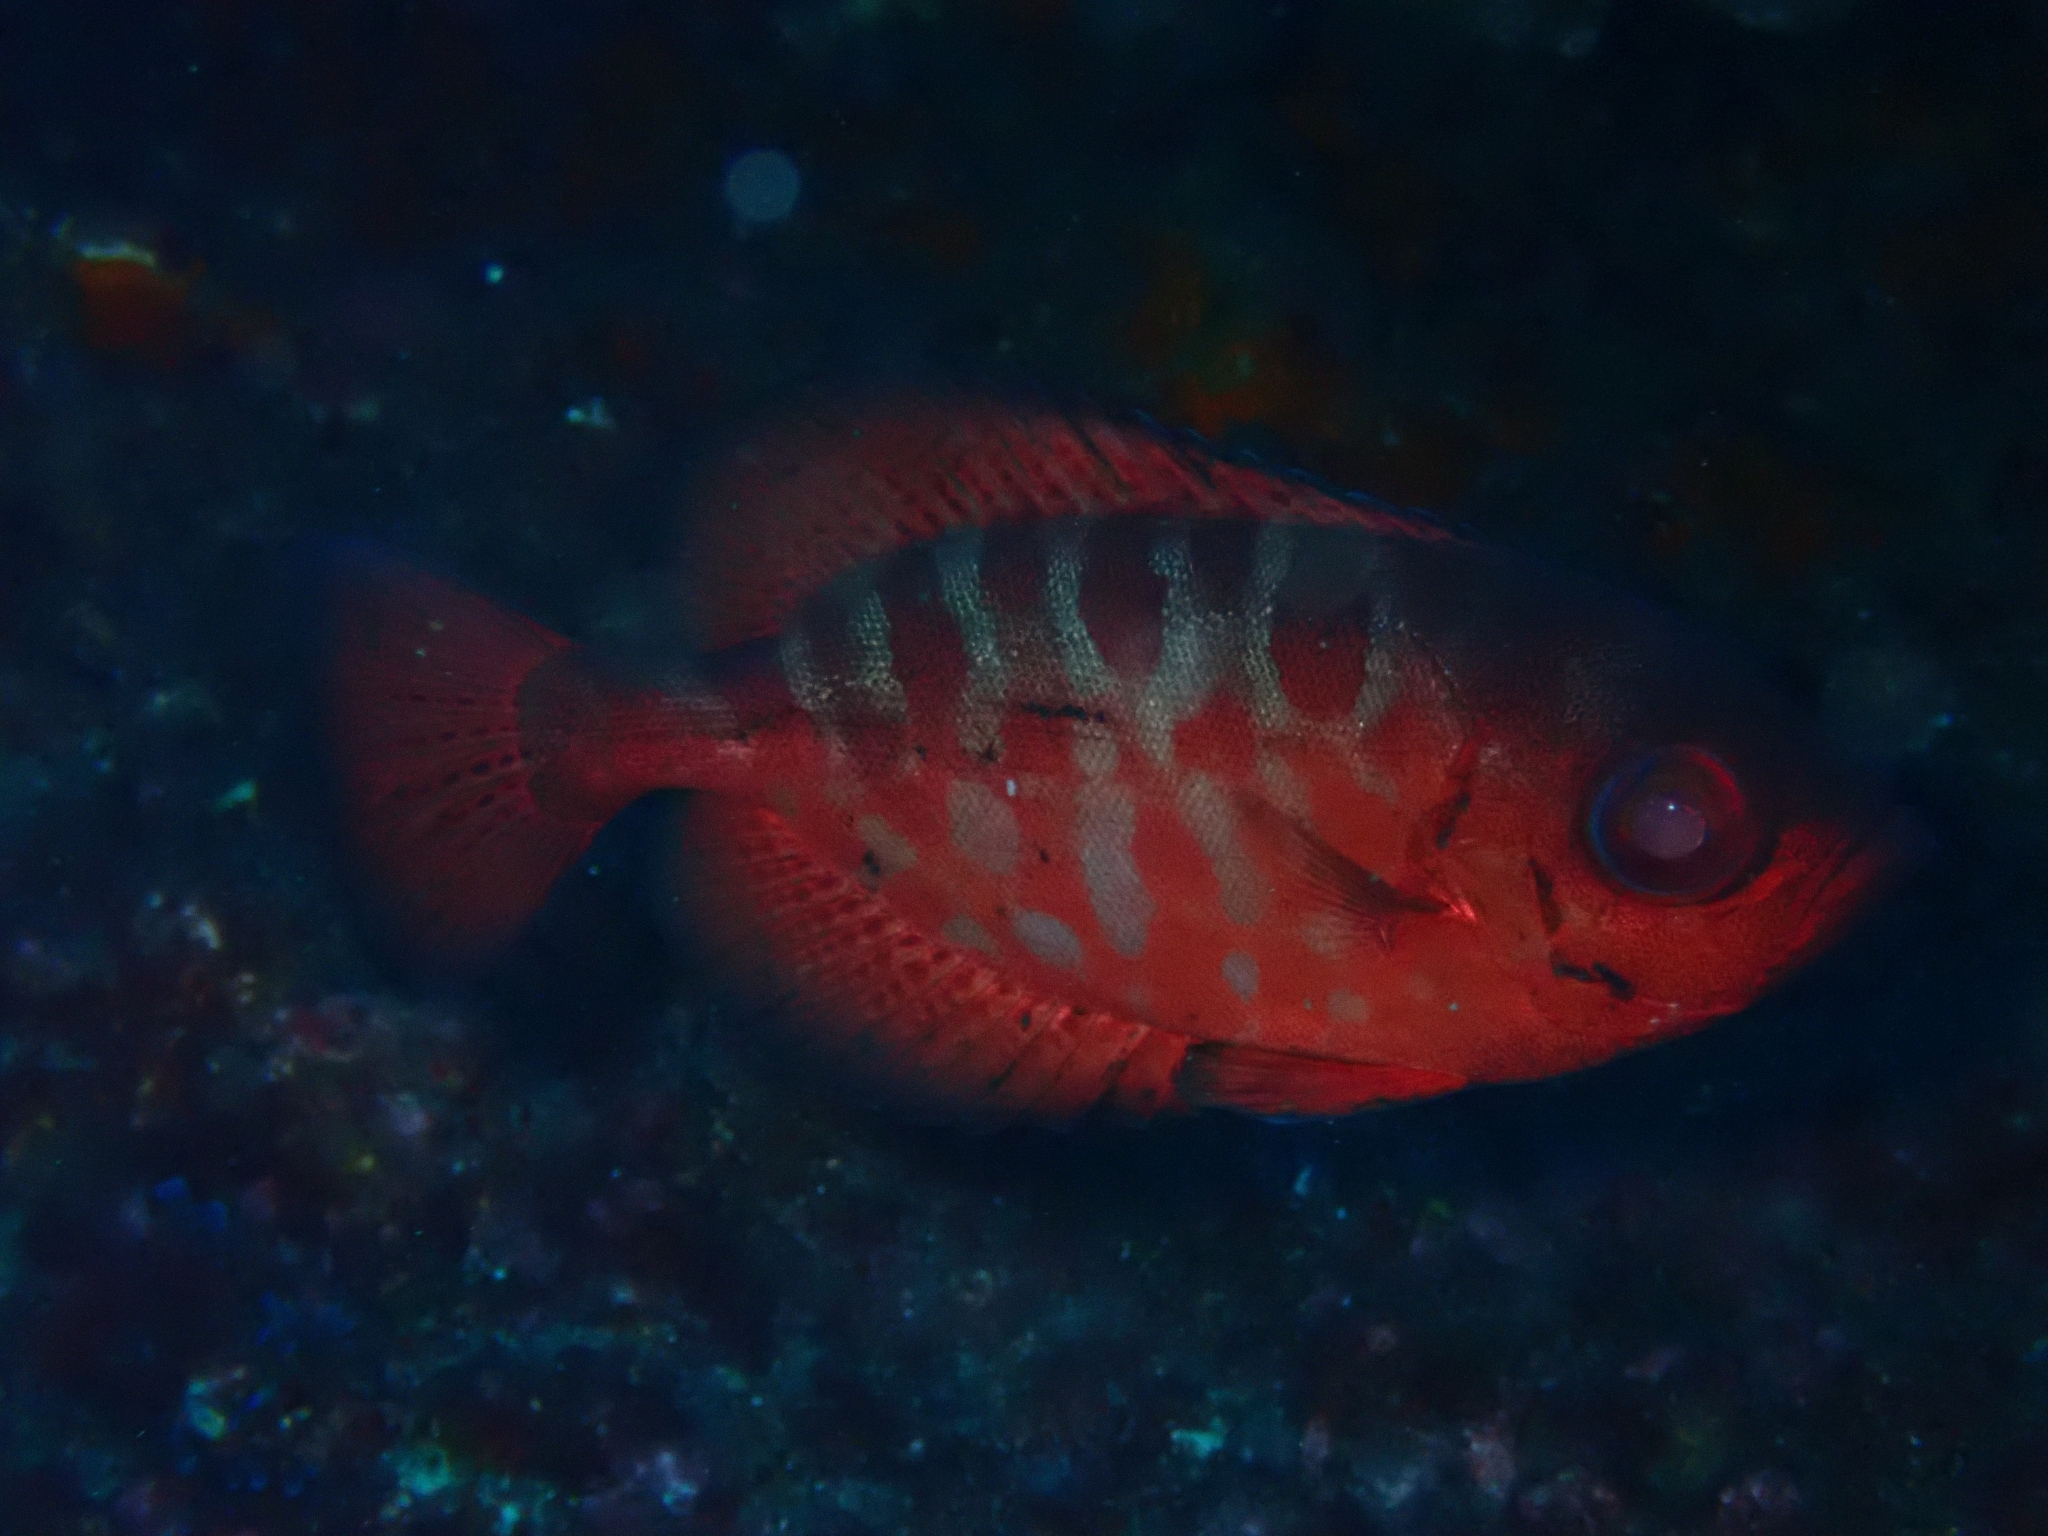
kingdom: Animalia
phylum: Chordata
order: Perciformes
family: Priacanthidae
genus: Heteropriacanthus
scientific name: Heteropriacanthus fulgens
